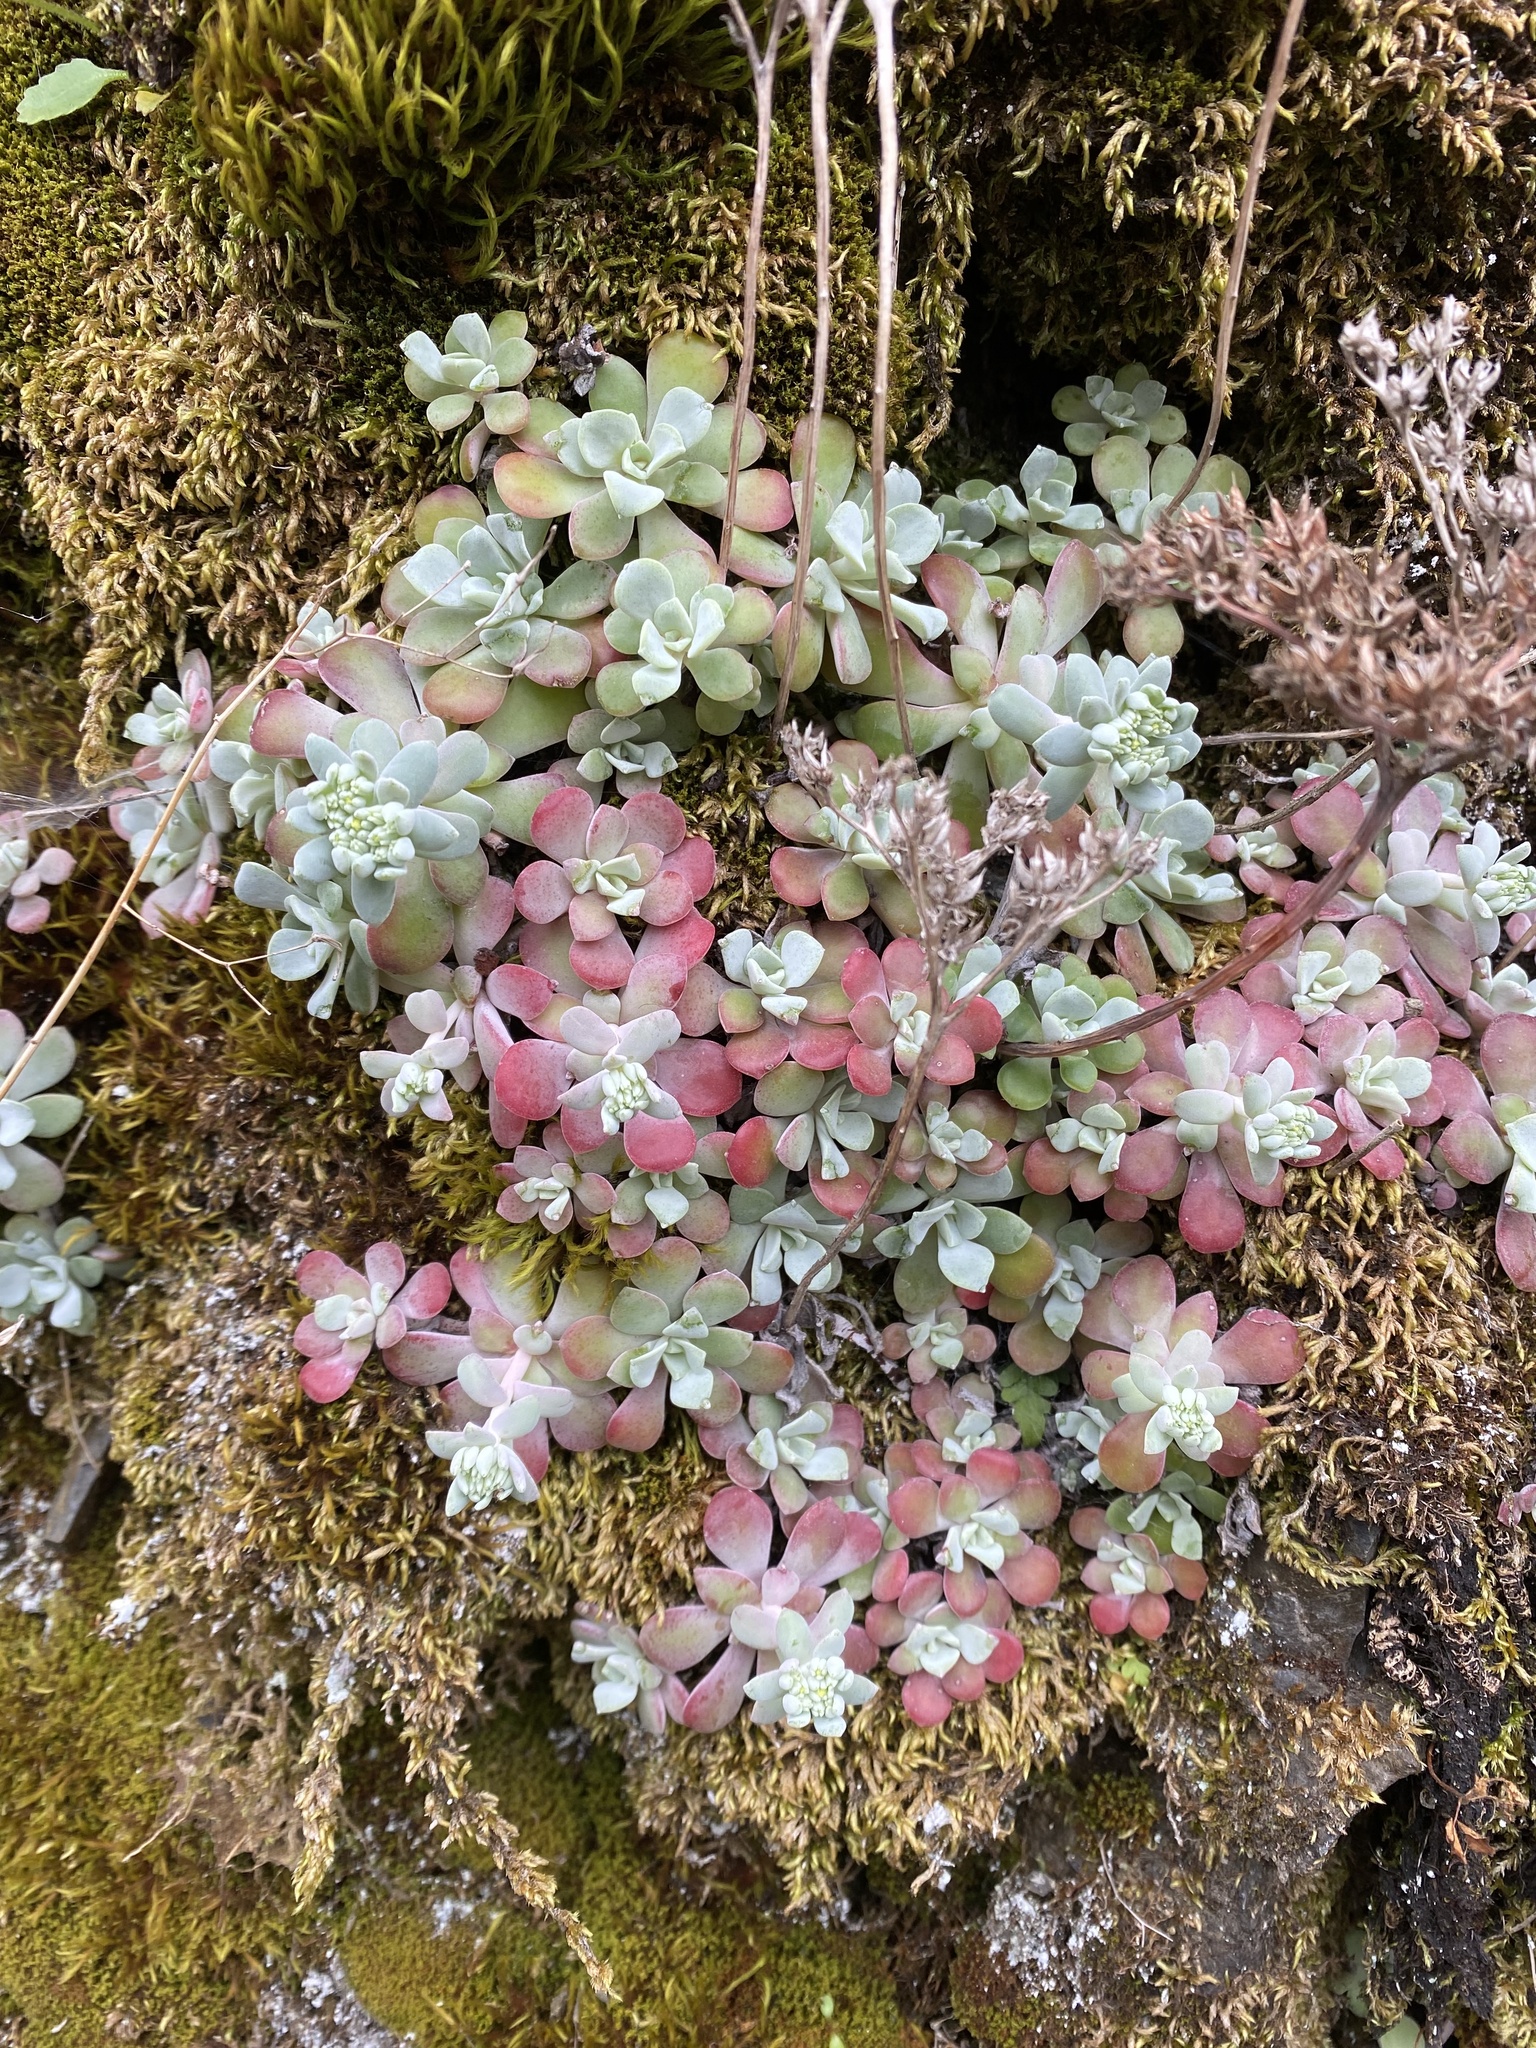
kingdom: Plantae
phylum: Tracheophyta
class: Magnoliopsida
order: Saxifragales
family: Crassulaceae
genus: Sedum
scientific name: Sedum spathulifolium
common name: Colorado stonecrop
